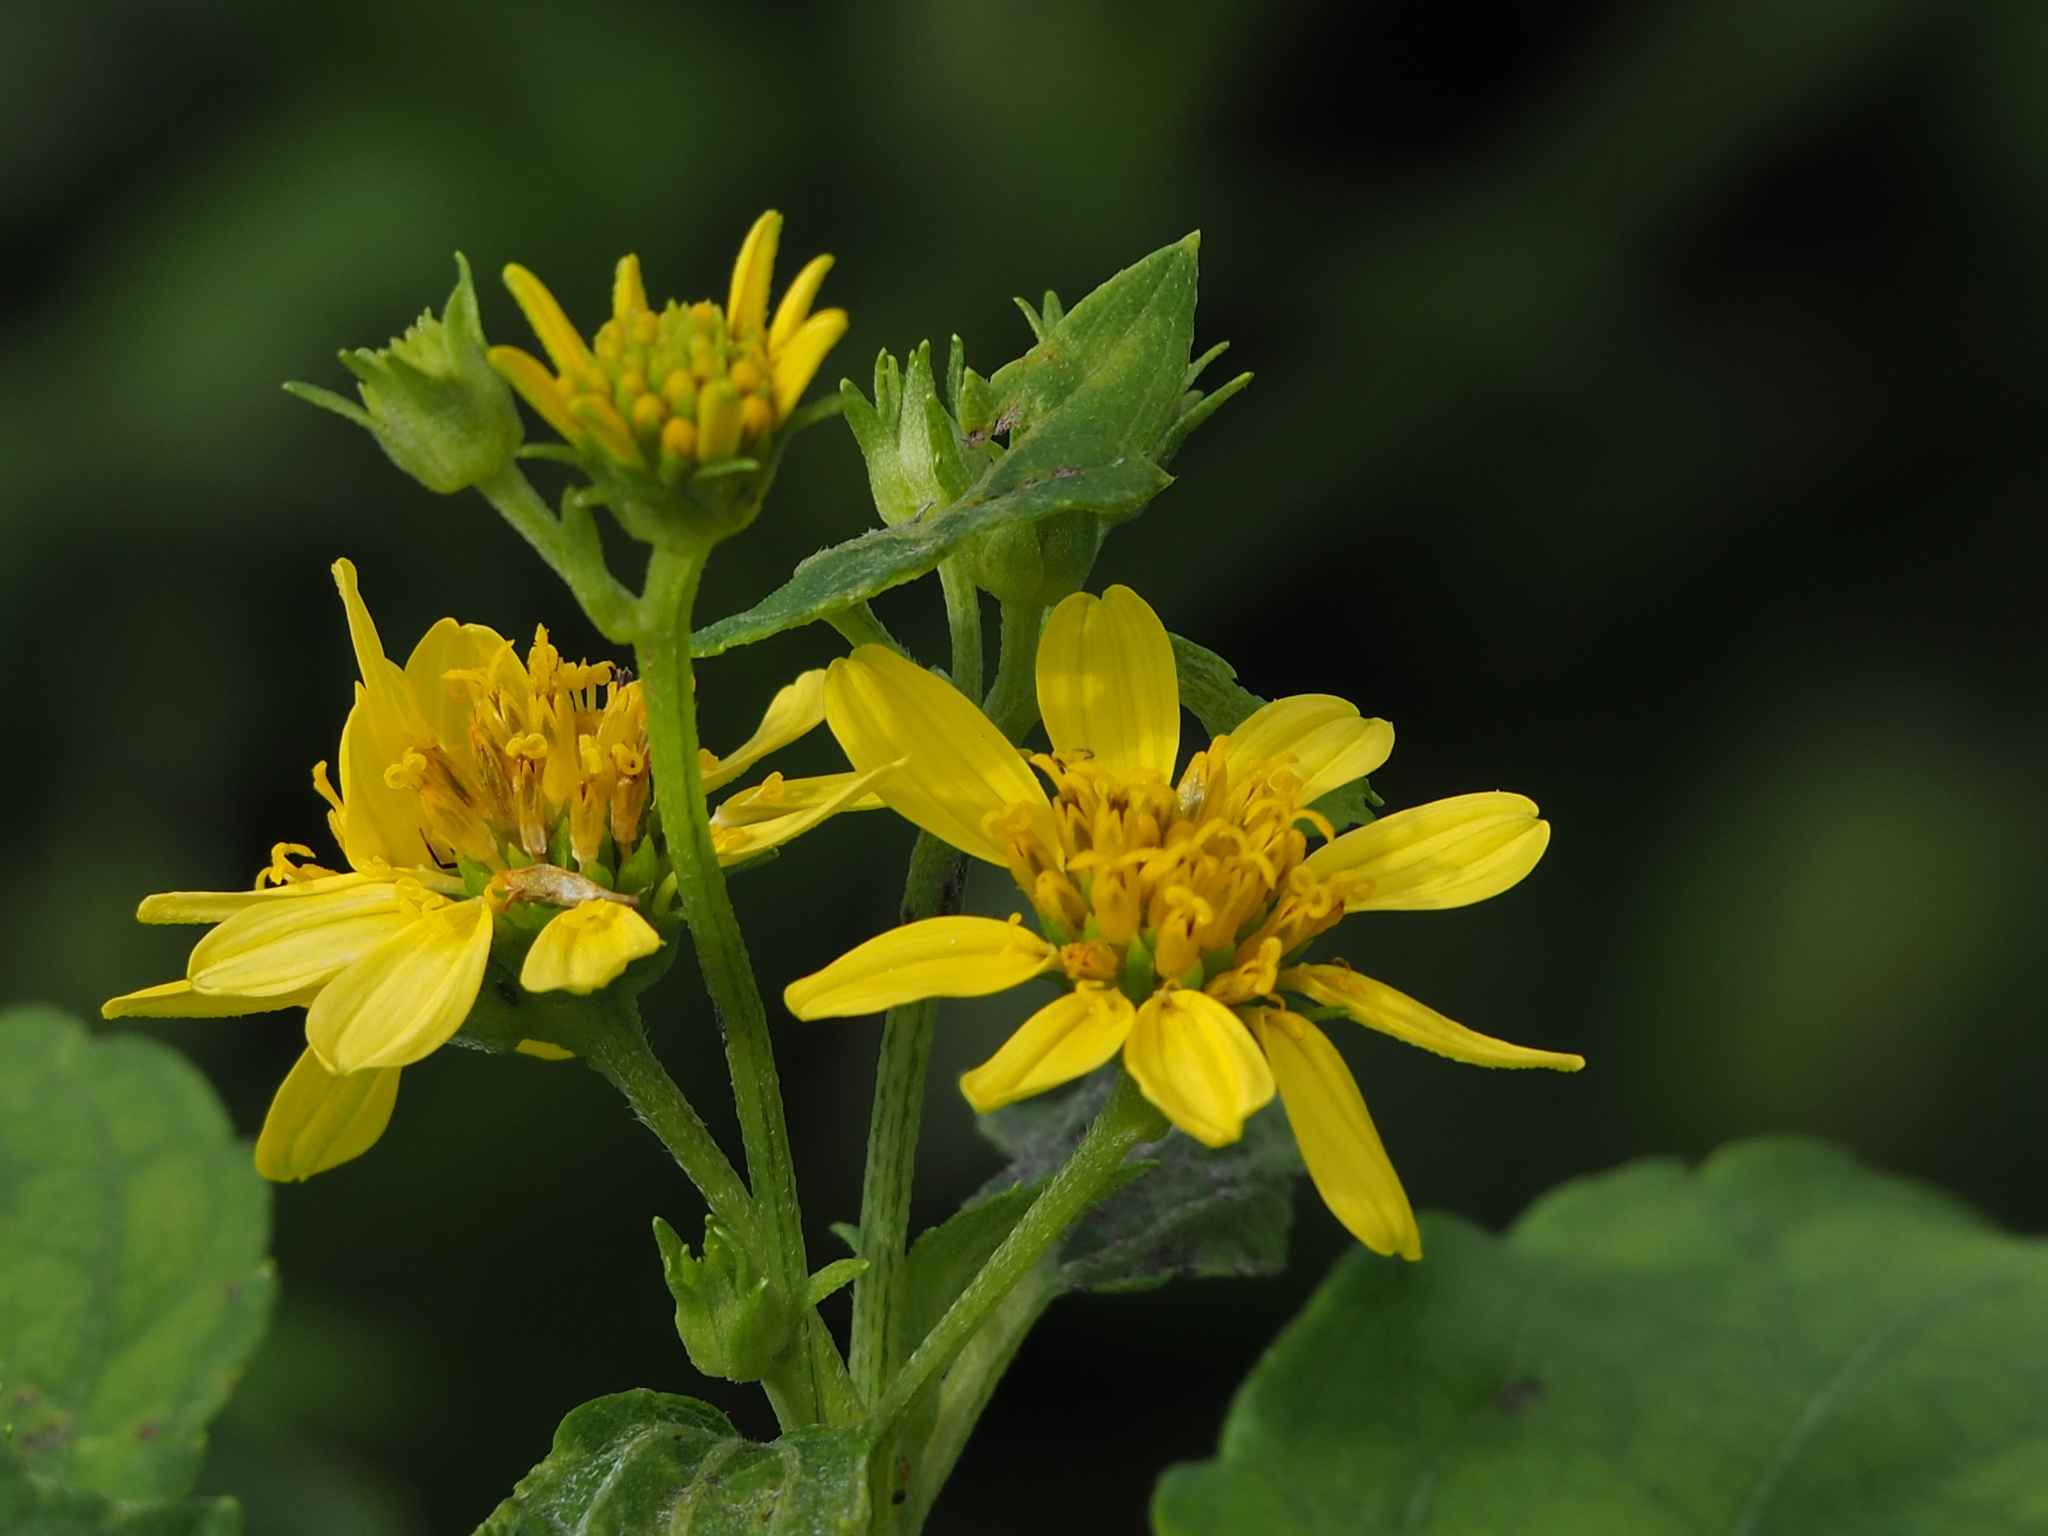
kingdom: Plantae
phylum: Tracheophyta
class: Magnoliopsida
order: Asterales
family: Asteraceae
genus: Wollastonia
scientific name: Wollastonia biflora
